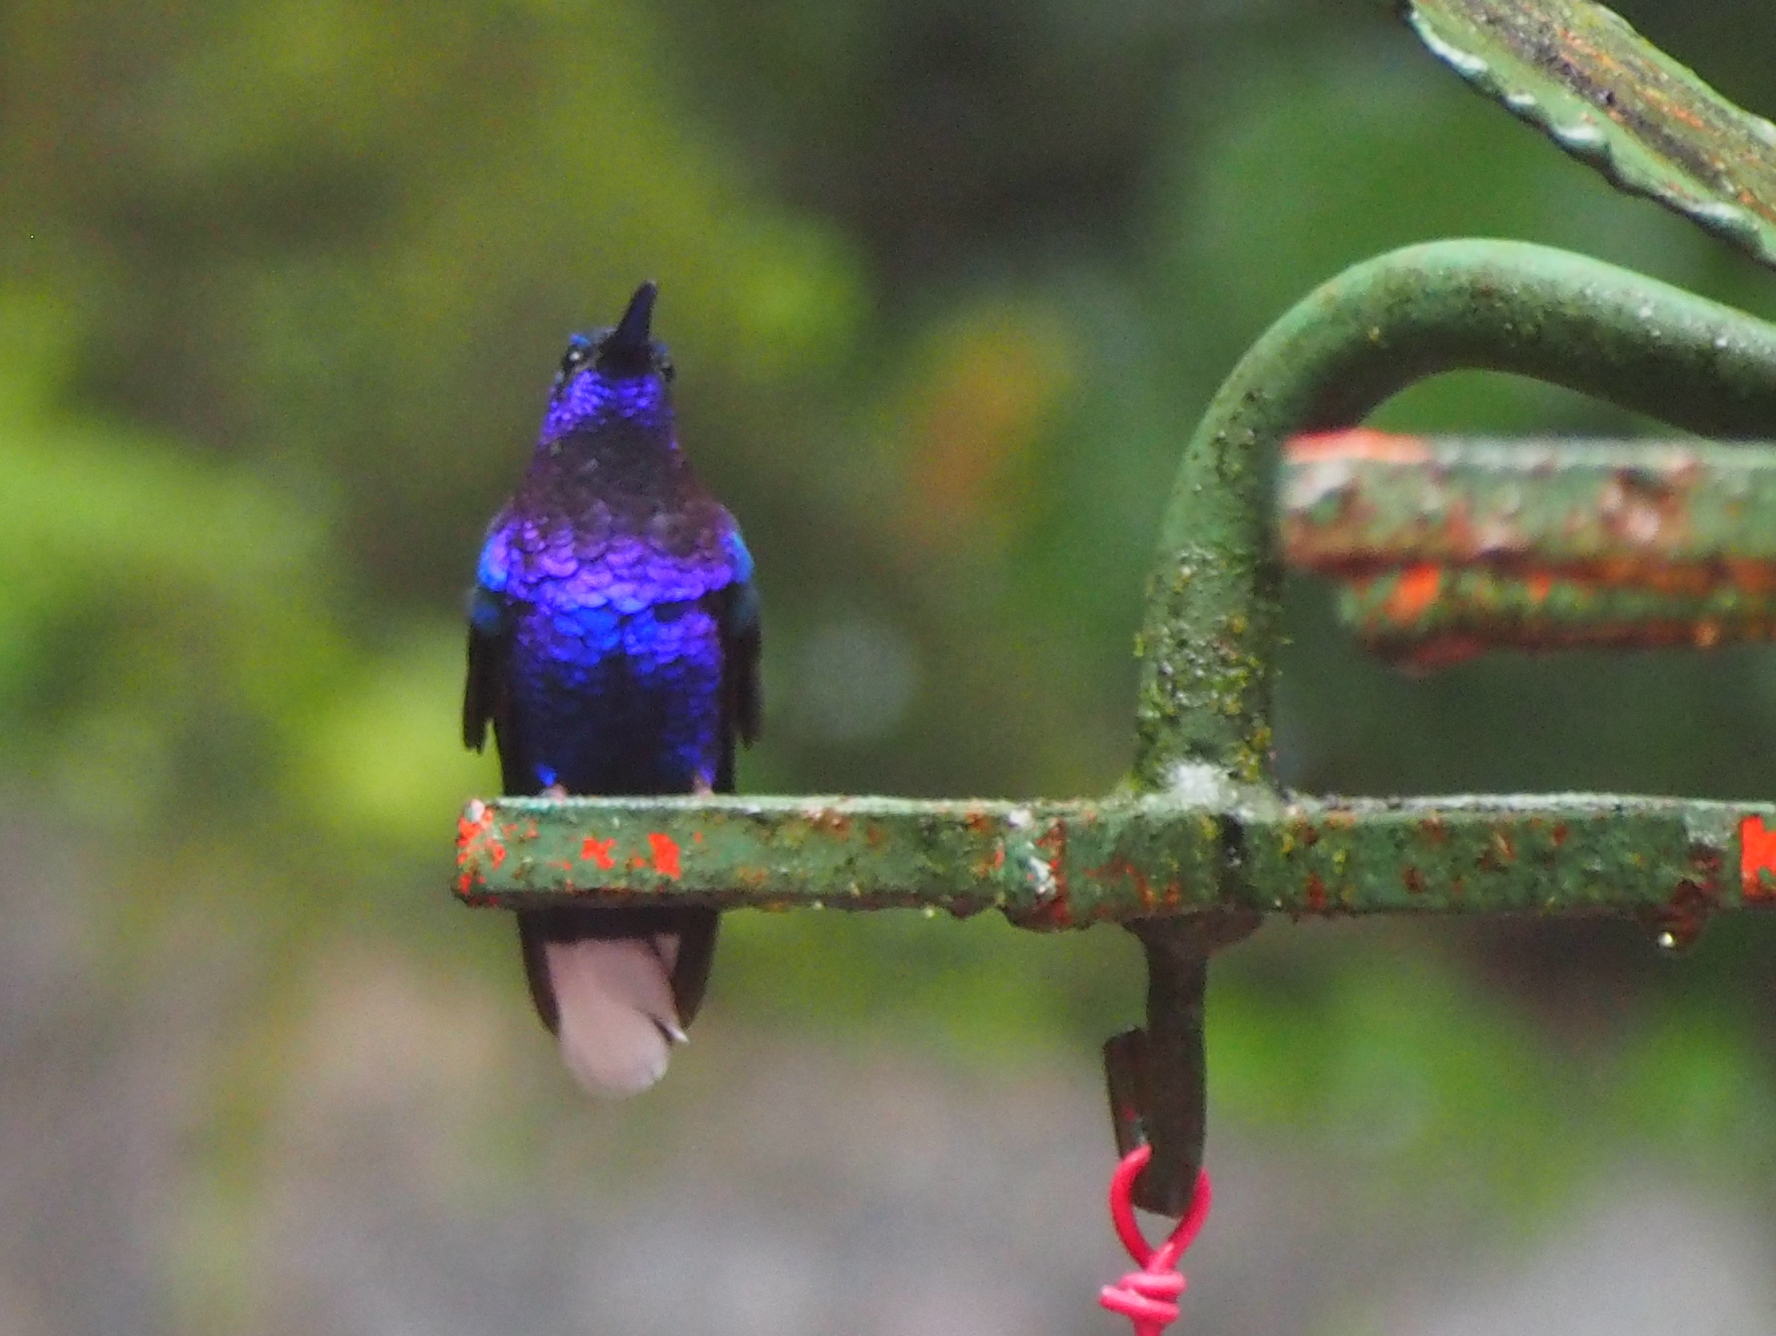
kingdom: Animalia
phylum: Chordata
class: Aves
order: Apodiformes
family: Trochilidae
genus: Campylopterus
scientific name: Campylopterus hemileucurus
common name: Violet sabrewing
